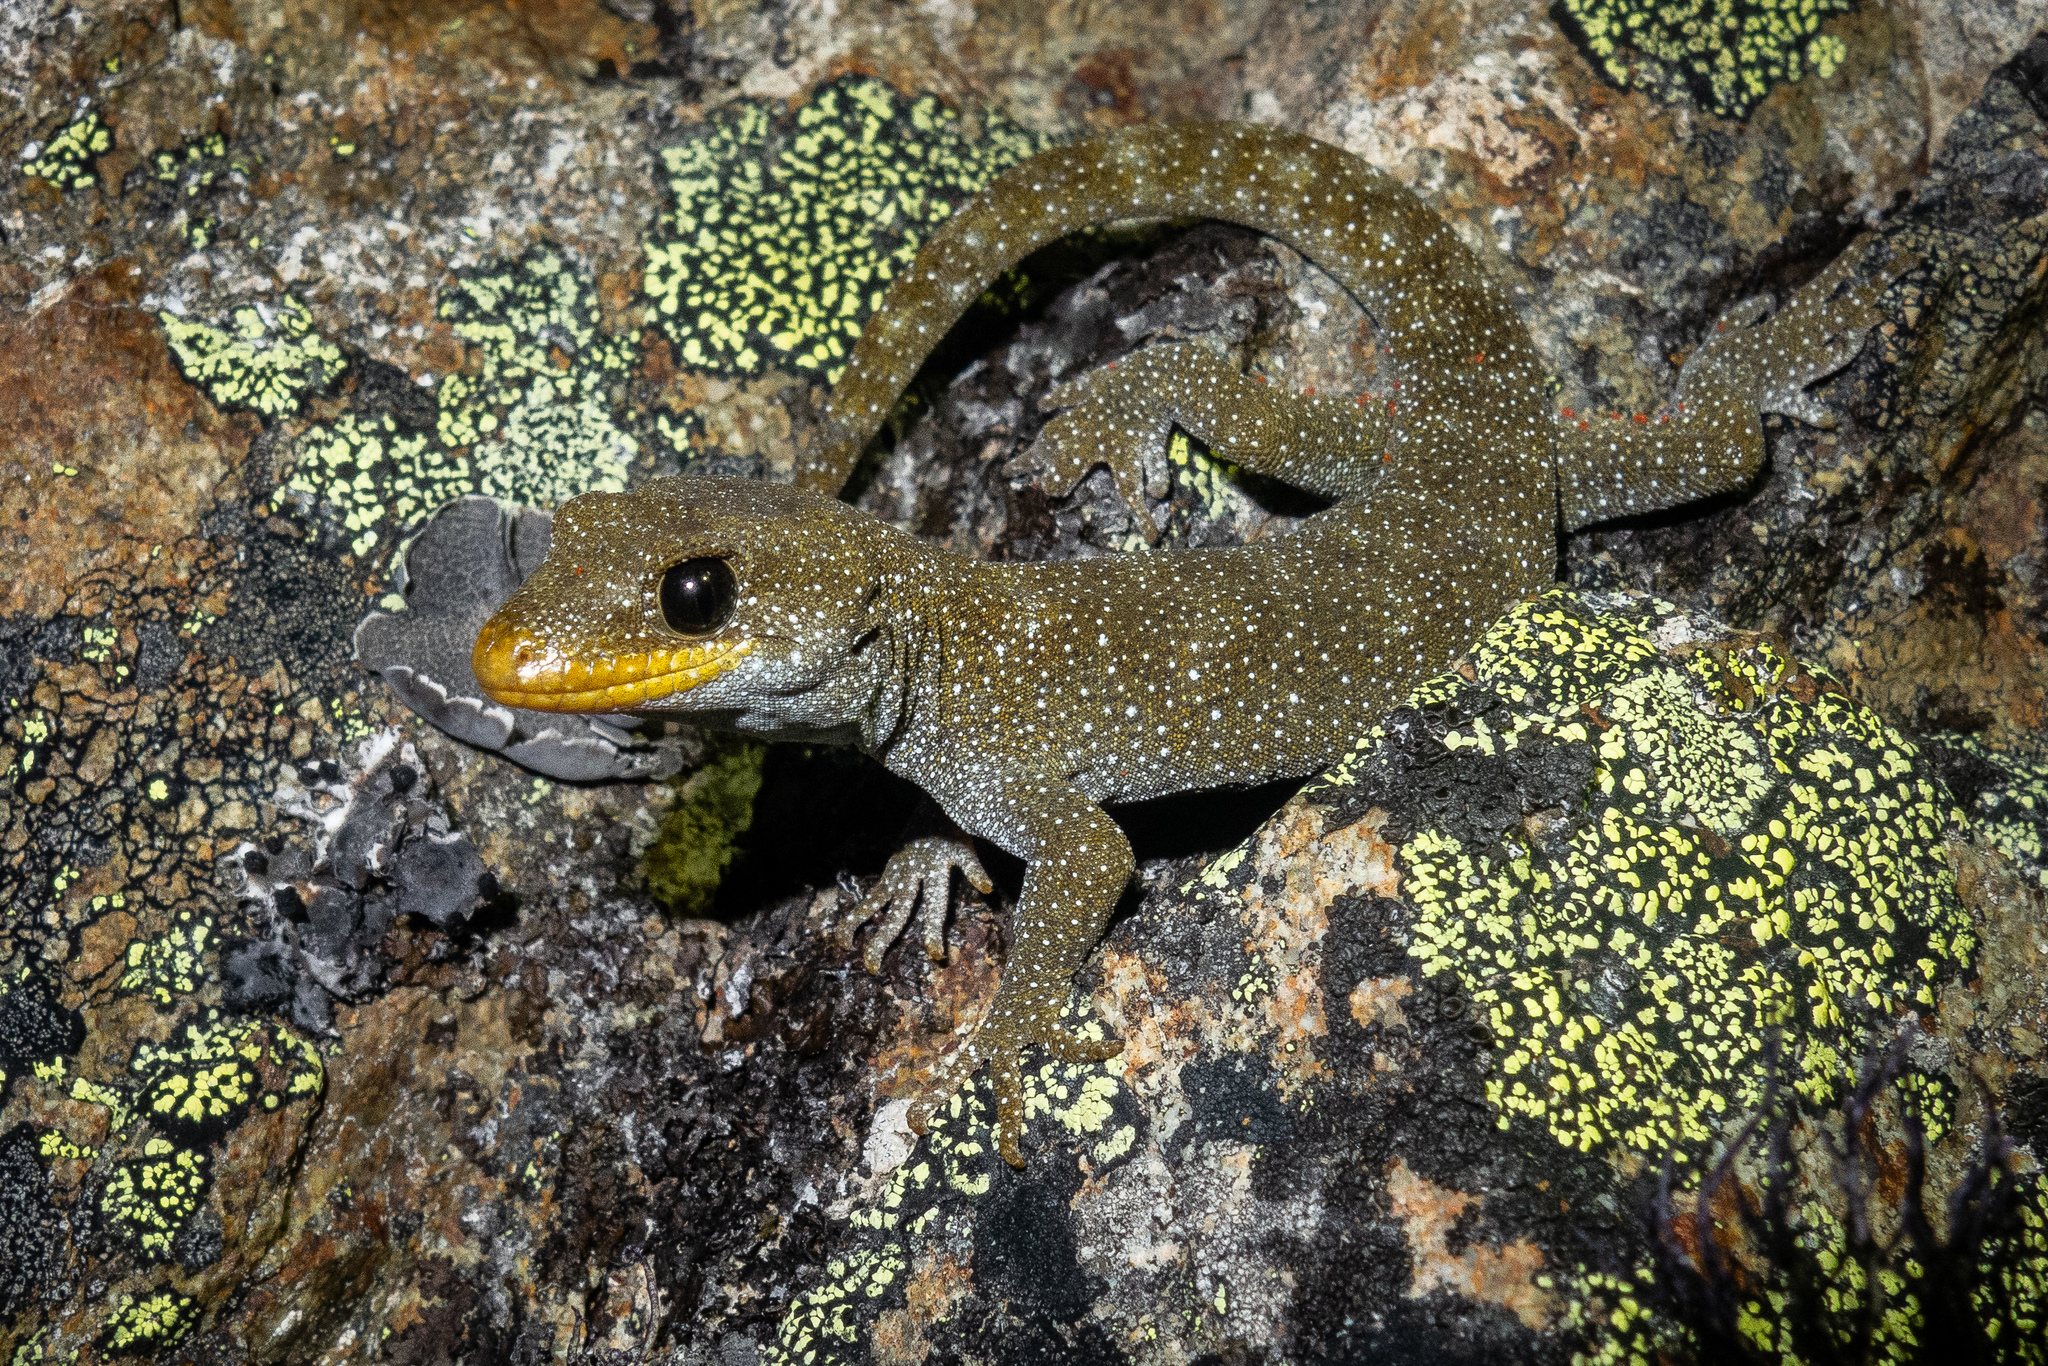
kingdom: Animalia
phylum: Chordata
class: Squamata
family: Diplodactylidae
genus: Mokopirirakau
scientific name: Mokopirirakau galaxias
